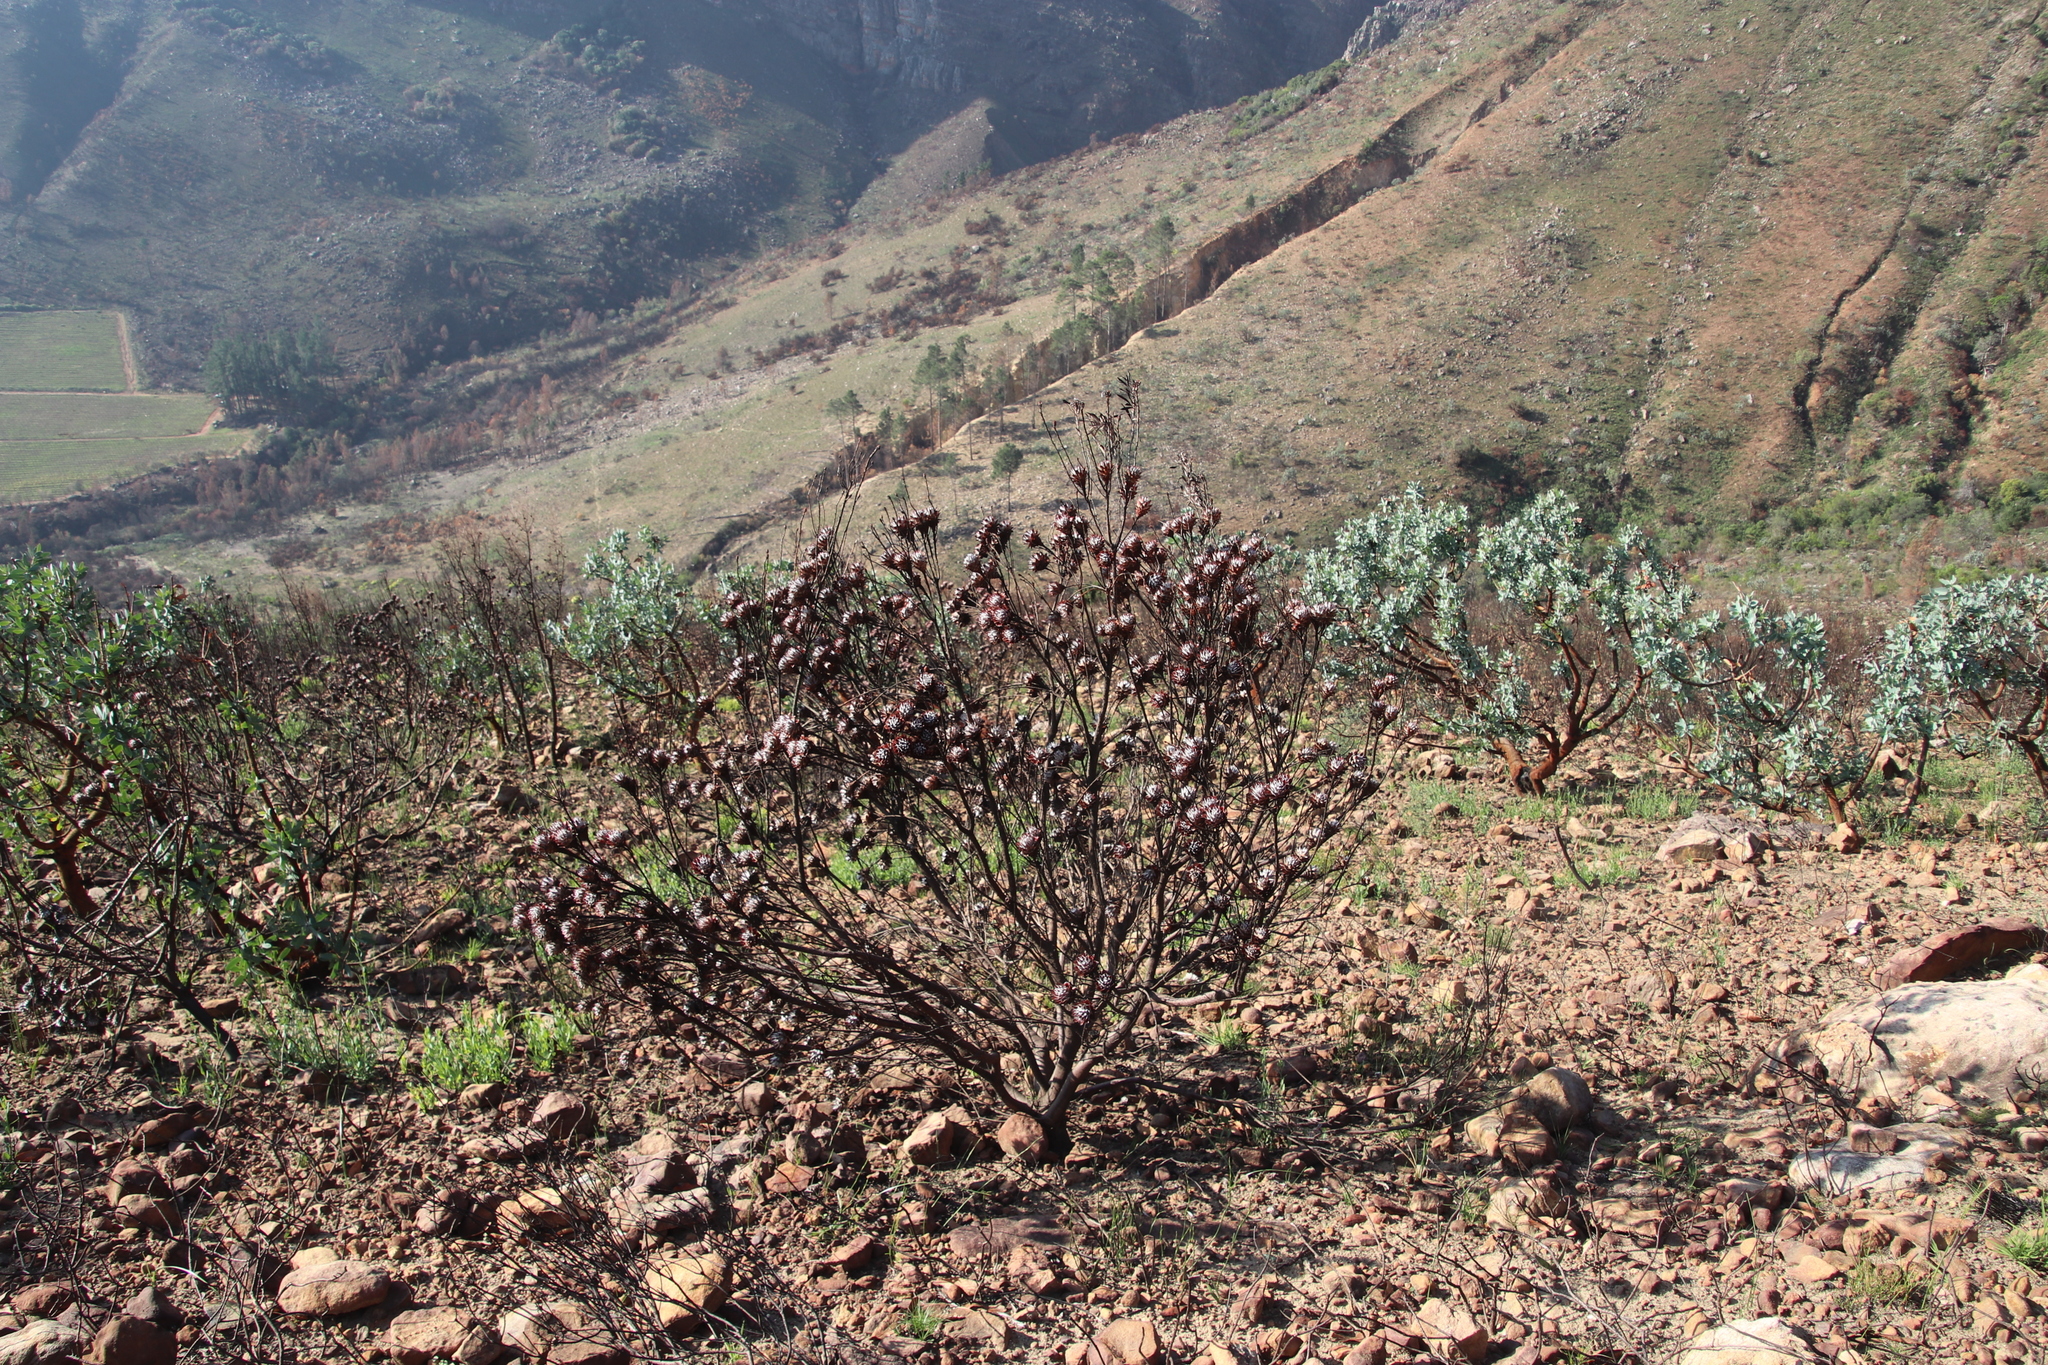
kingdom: Plantae
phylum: Tracheophyta
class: Magnoliopsida
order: Proteales
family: Proteaceae
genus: Leucadendron
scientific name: Leucadendron rubrum
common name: Spinning top
